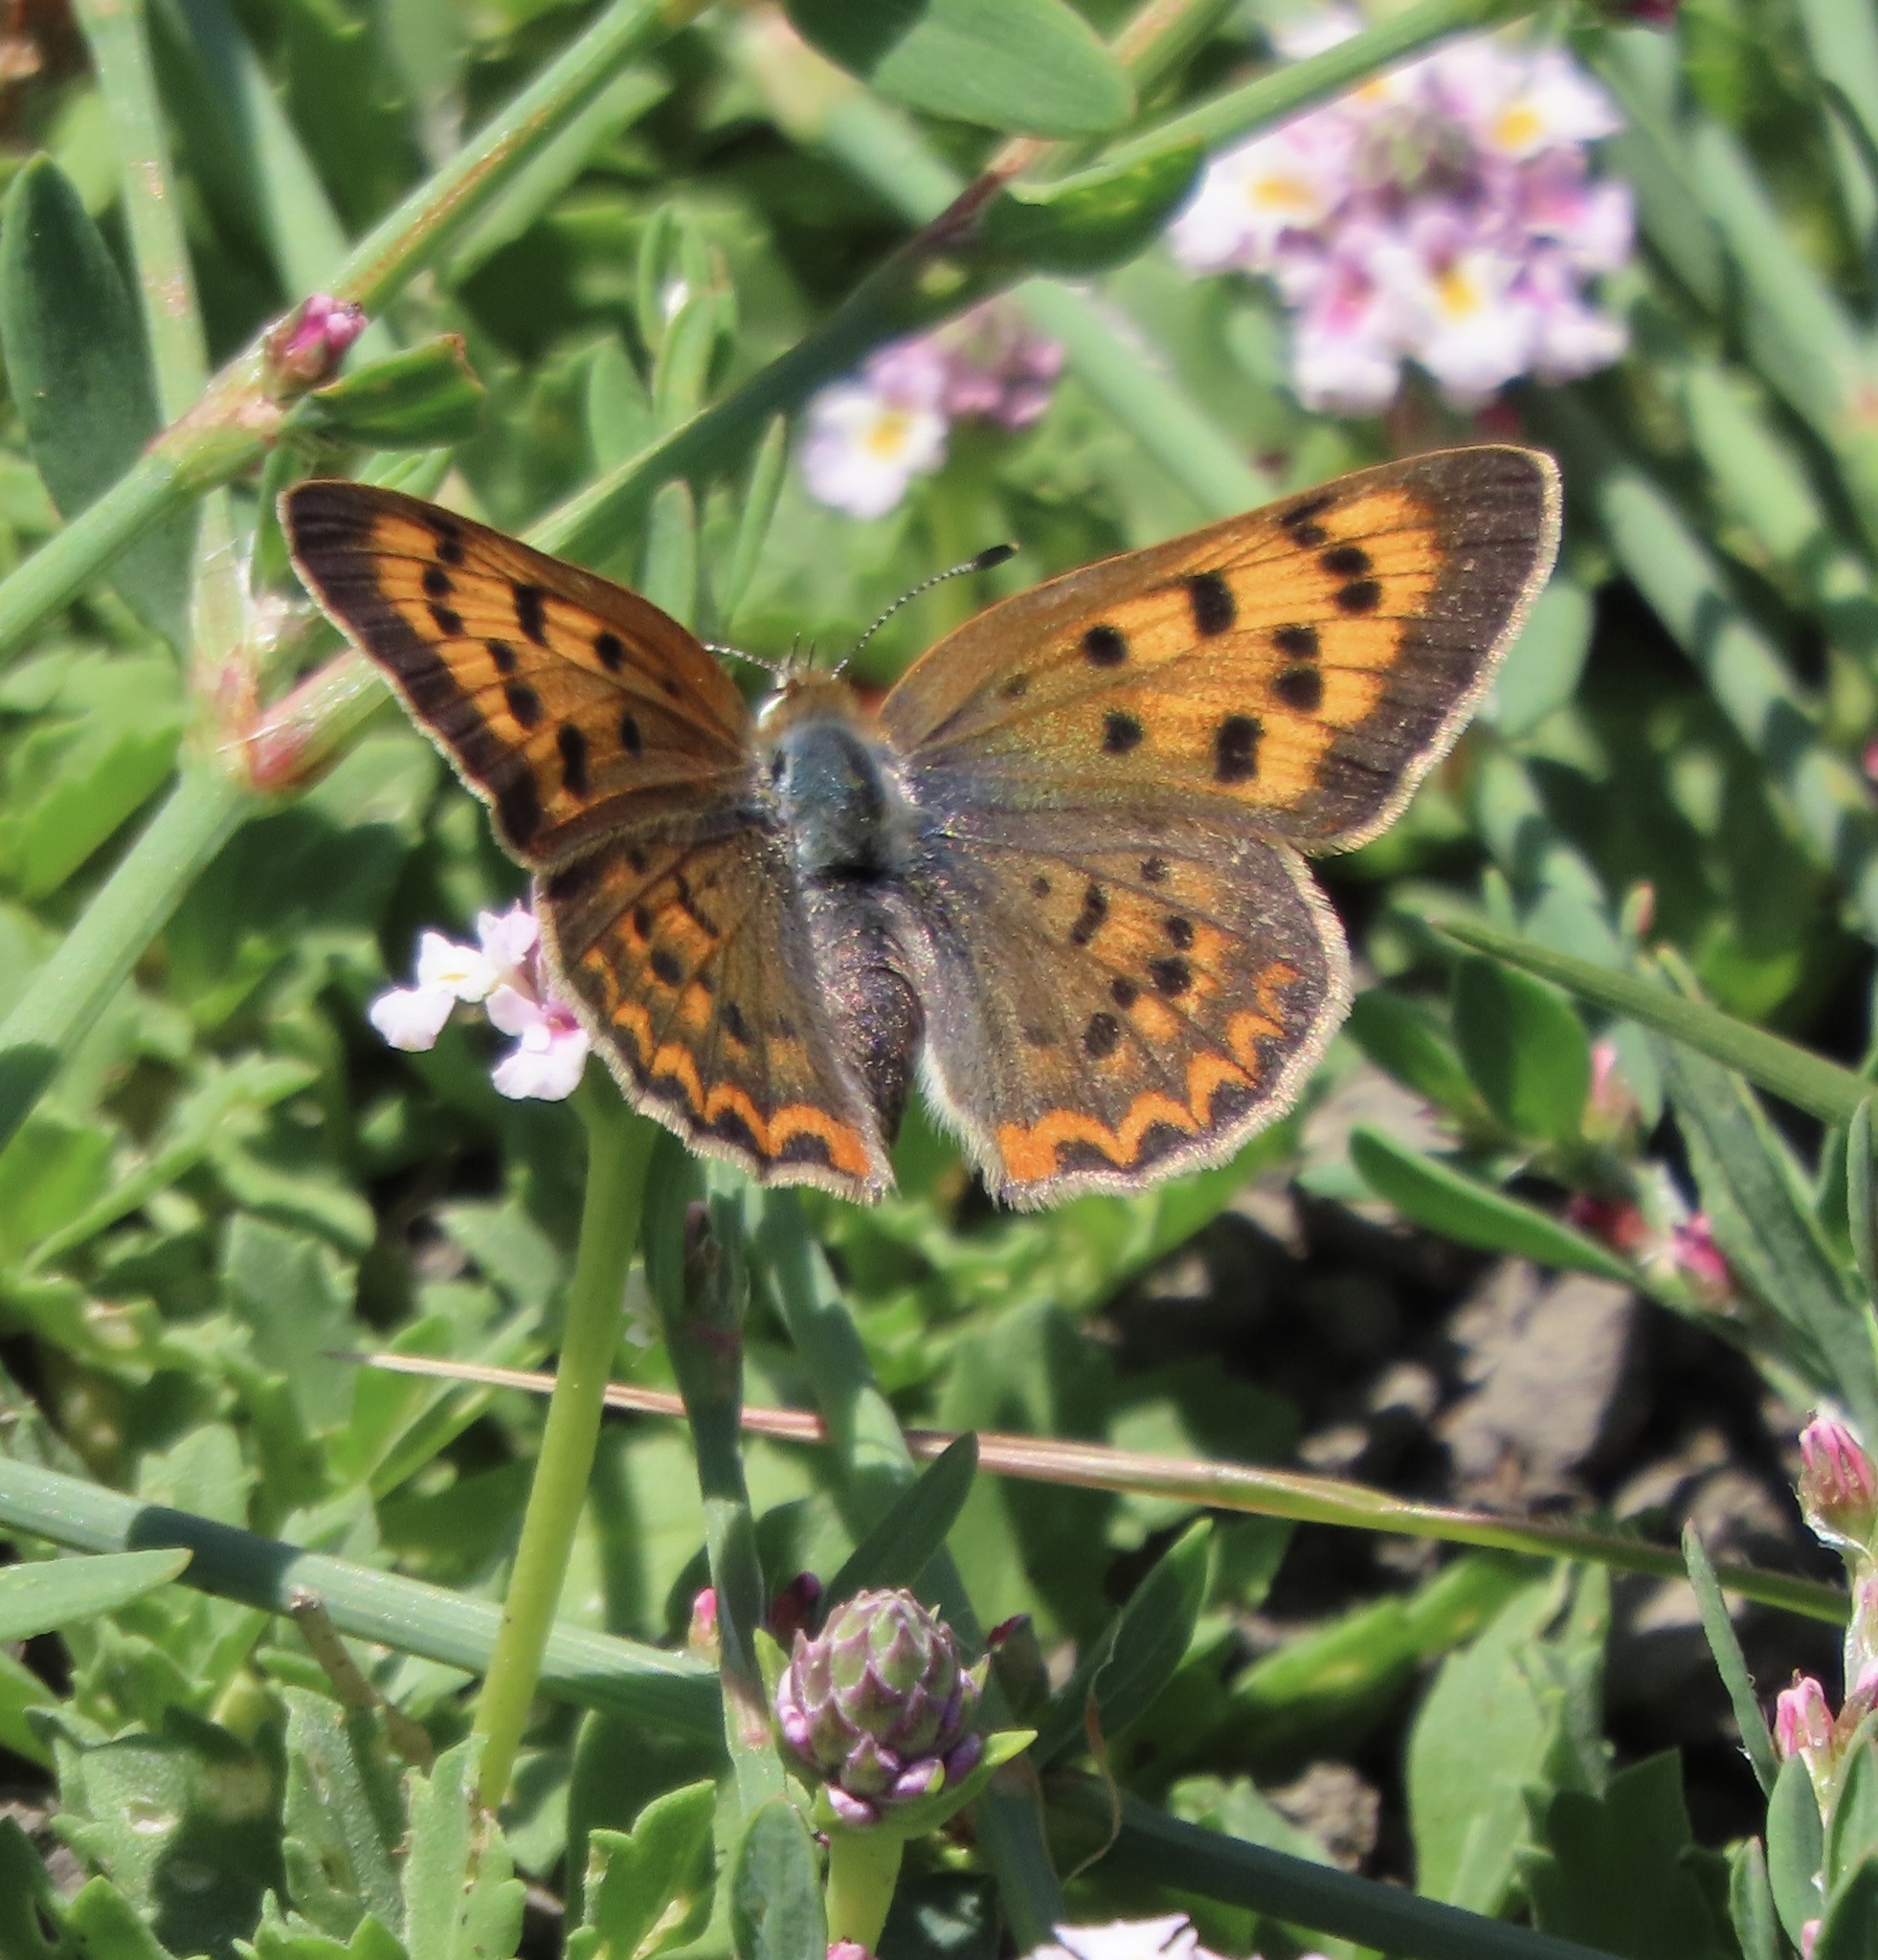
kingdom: Animalia
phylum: Arthropoda
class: Insecta
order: Lepidoptera
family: Lycaenidae
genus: Tharsalea
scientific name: Tharsalea helloides
